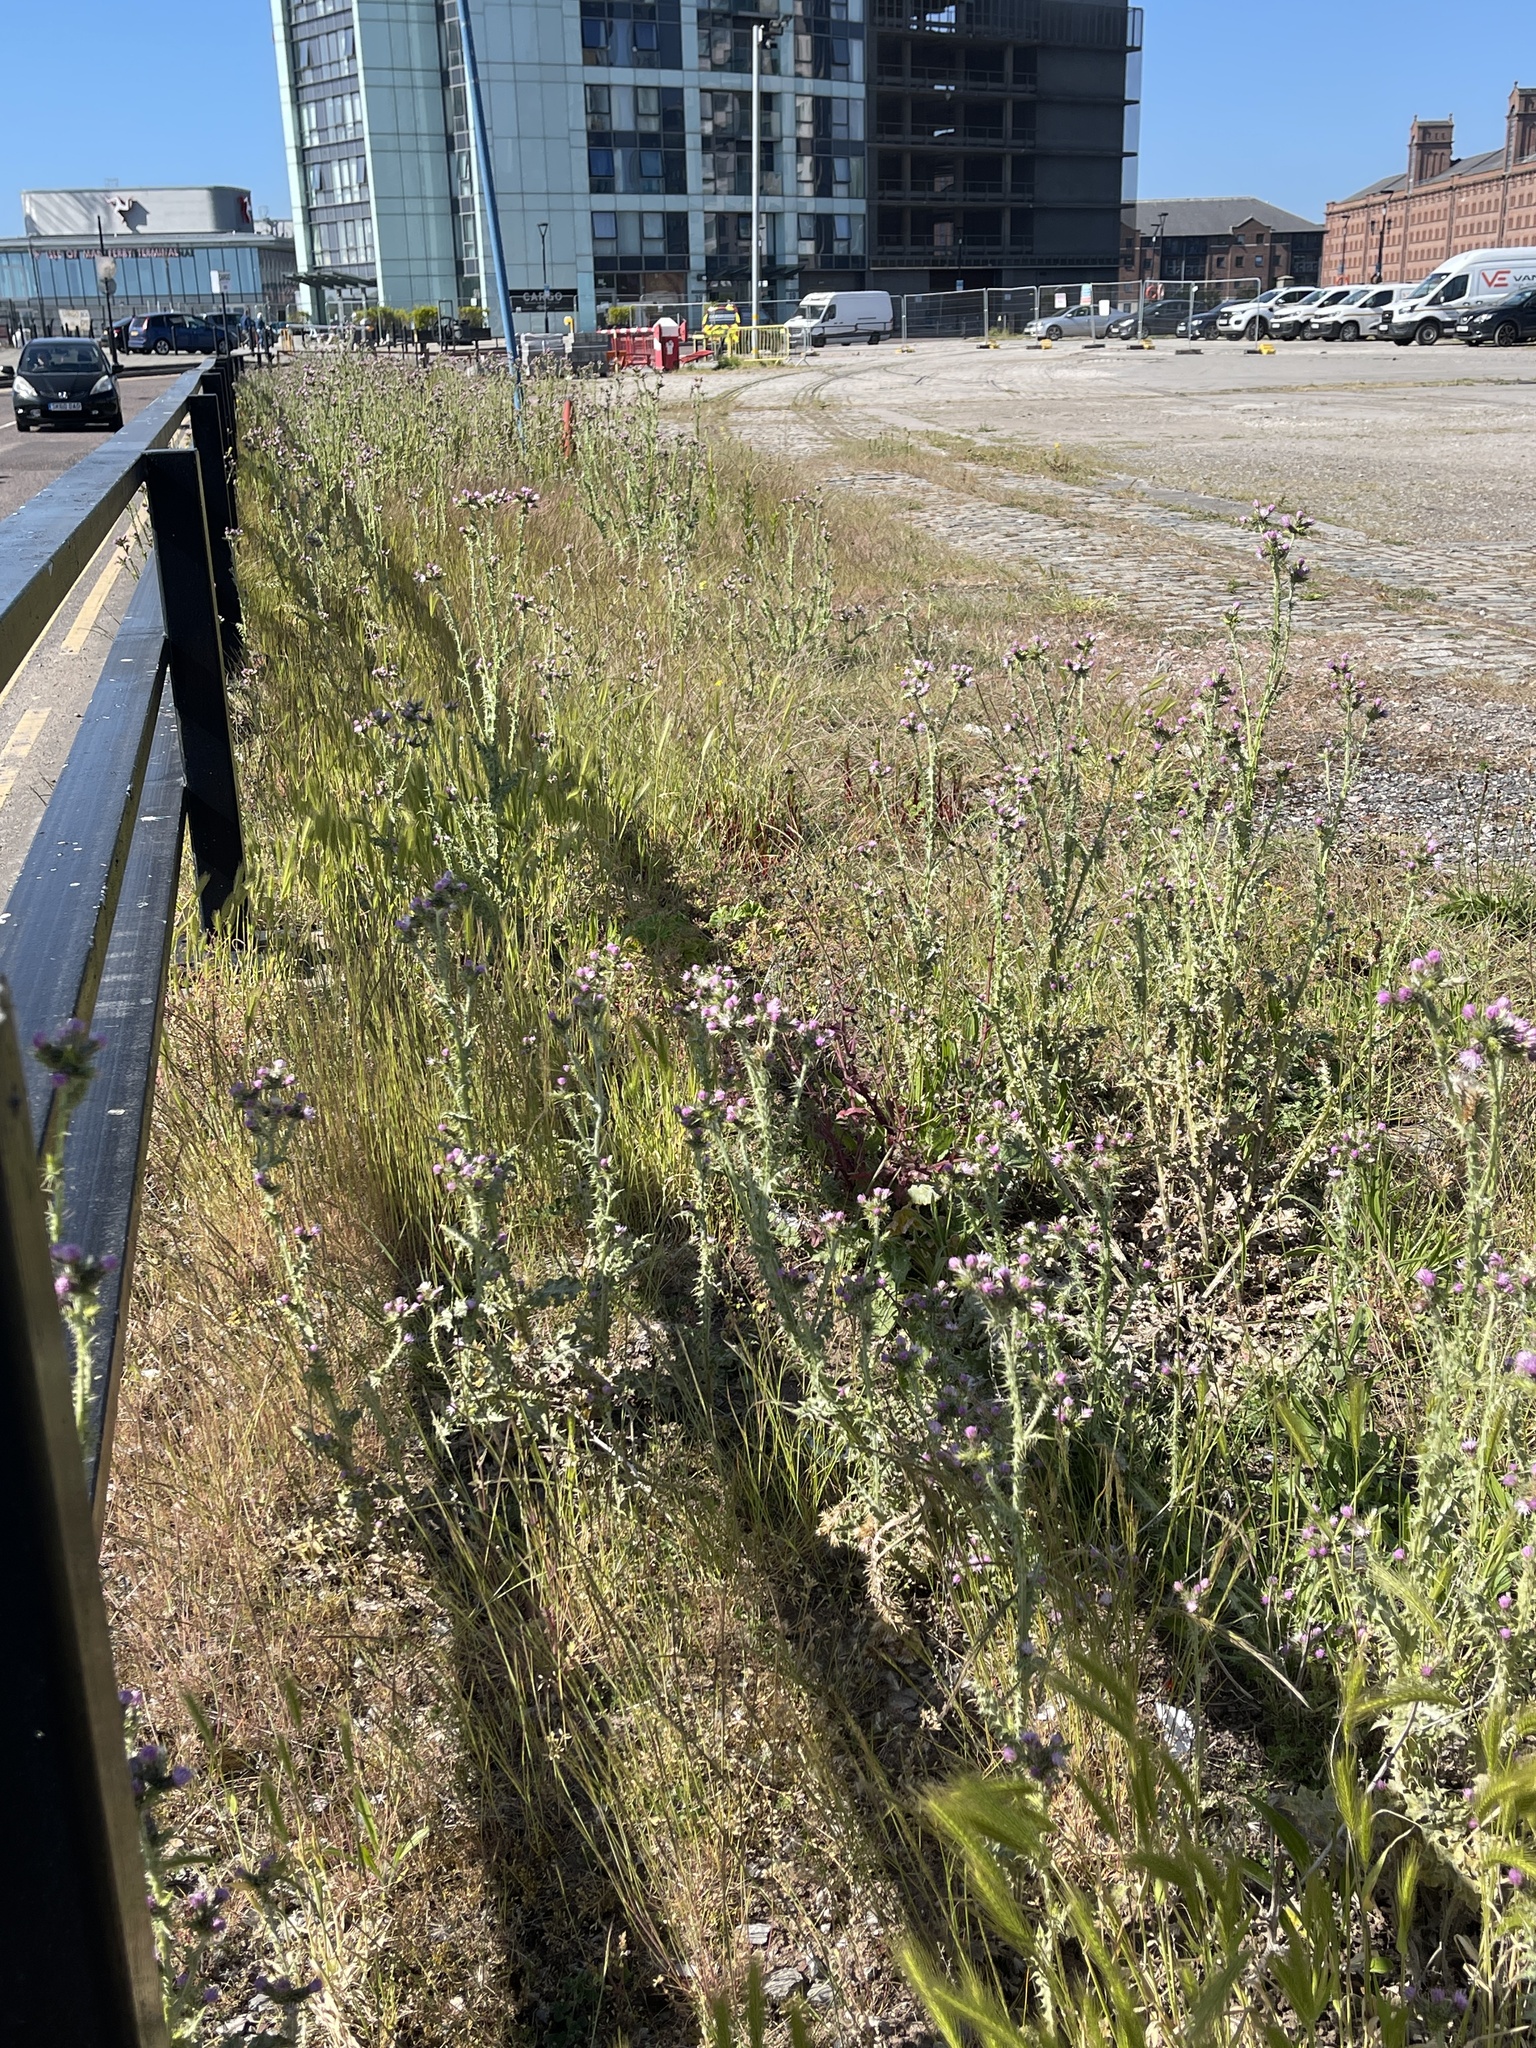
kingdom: Plantae
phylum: Tracheophyta
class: Magnoliopsida
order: Asterales
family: Asteraceae
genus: Carduus
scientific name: Carduus tenuiflorus
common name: Slender thistle
